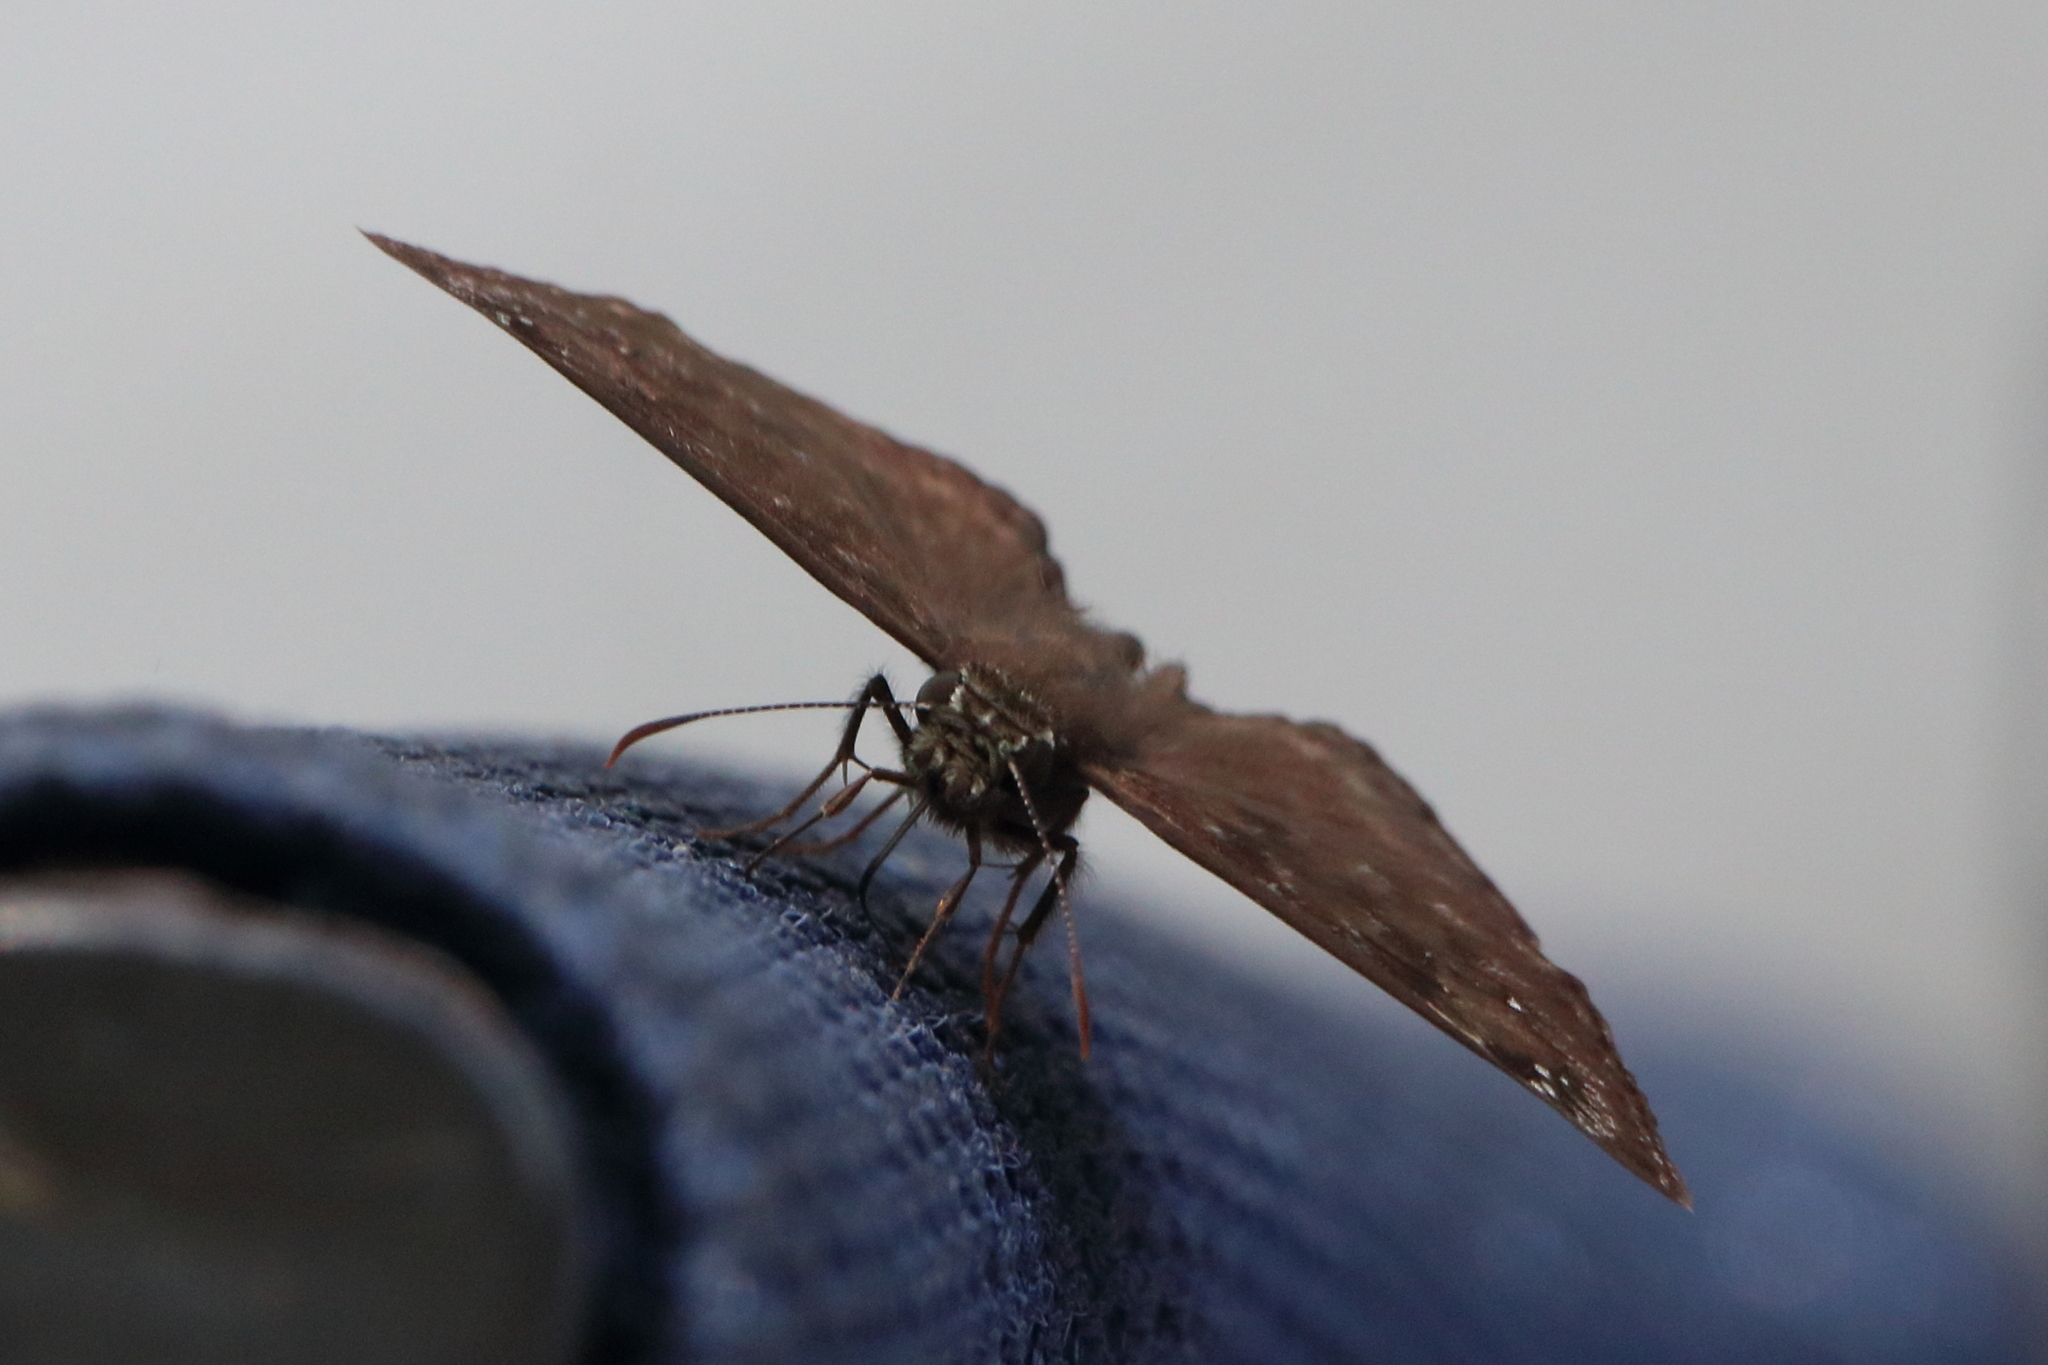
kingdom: Animalia
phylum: Arthropoda
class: Insecta
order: Lepidoptera
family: Hesperiidae
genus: Erynnis
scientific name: Erynnis horatius
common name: Horace's duskywing
